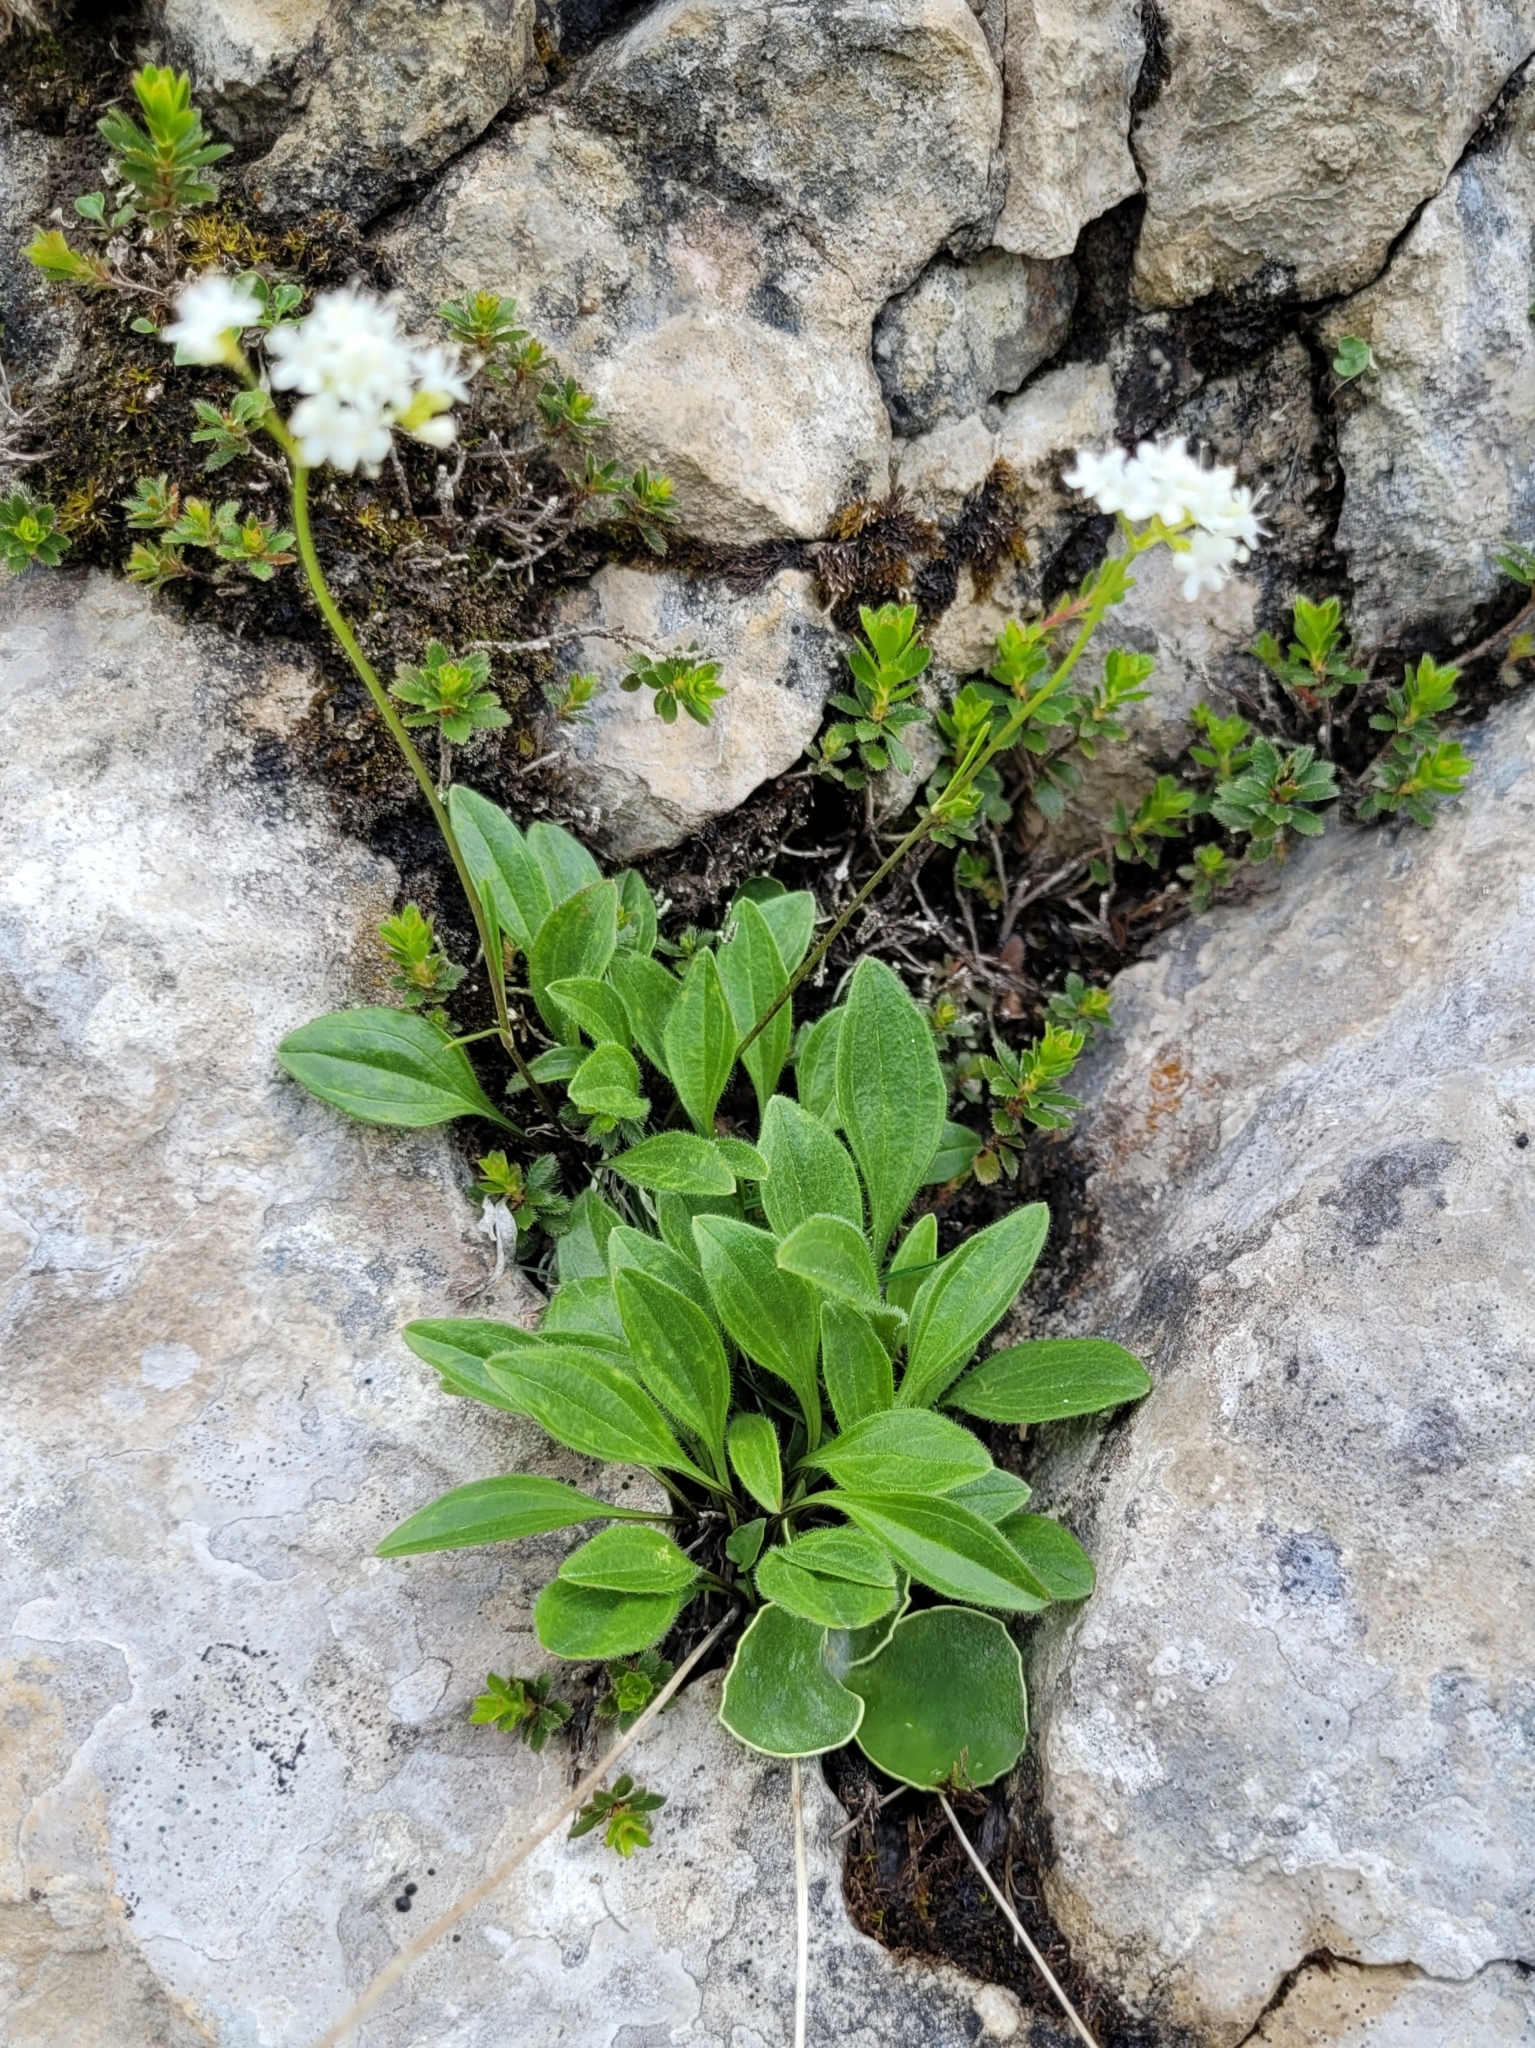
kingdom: Plantae
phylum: Tracheophyta
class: Magnoliopsida
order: Dipsacales
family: Caprifoliaceae
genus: Valeriana
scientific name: Valeriana saxatilis
